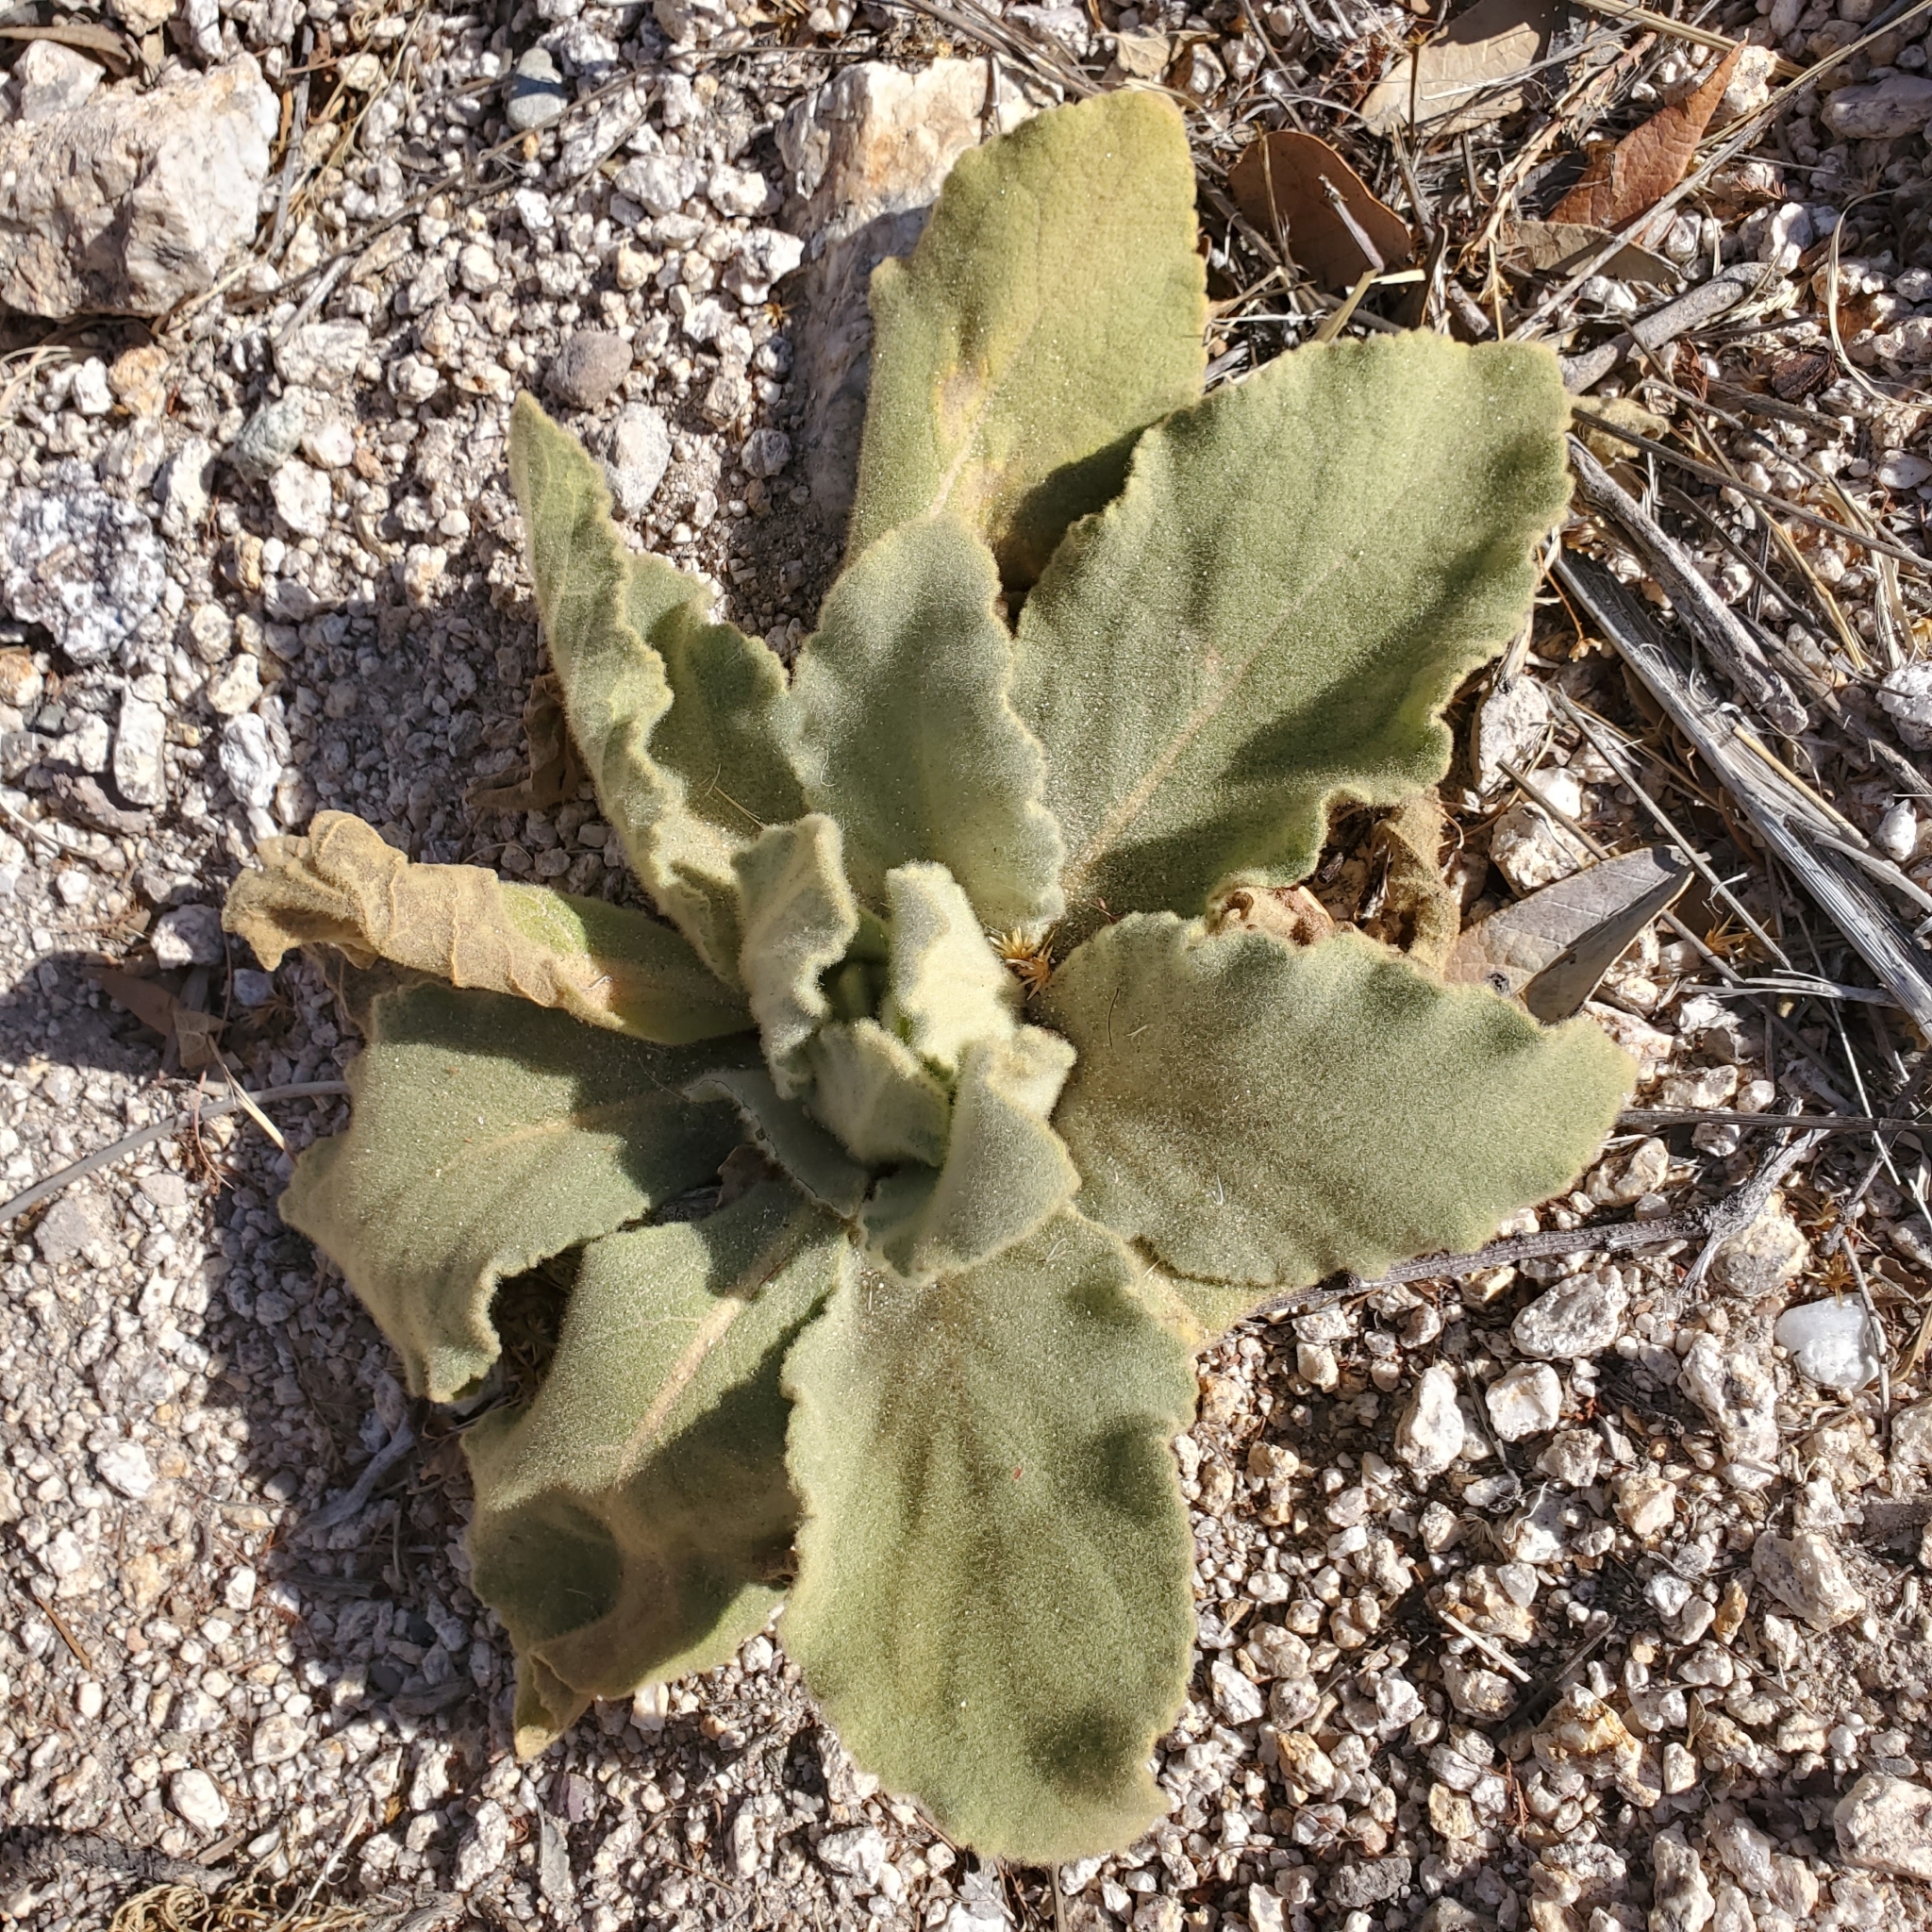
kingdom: Plantae
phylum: Tracheophyta
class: Magnoliopsida
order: Lamiales
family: Scrophulariaceae
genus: Verbascum
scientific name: Verbascum thapsus
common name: Common mullein
